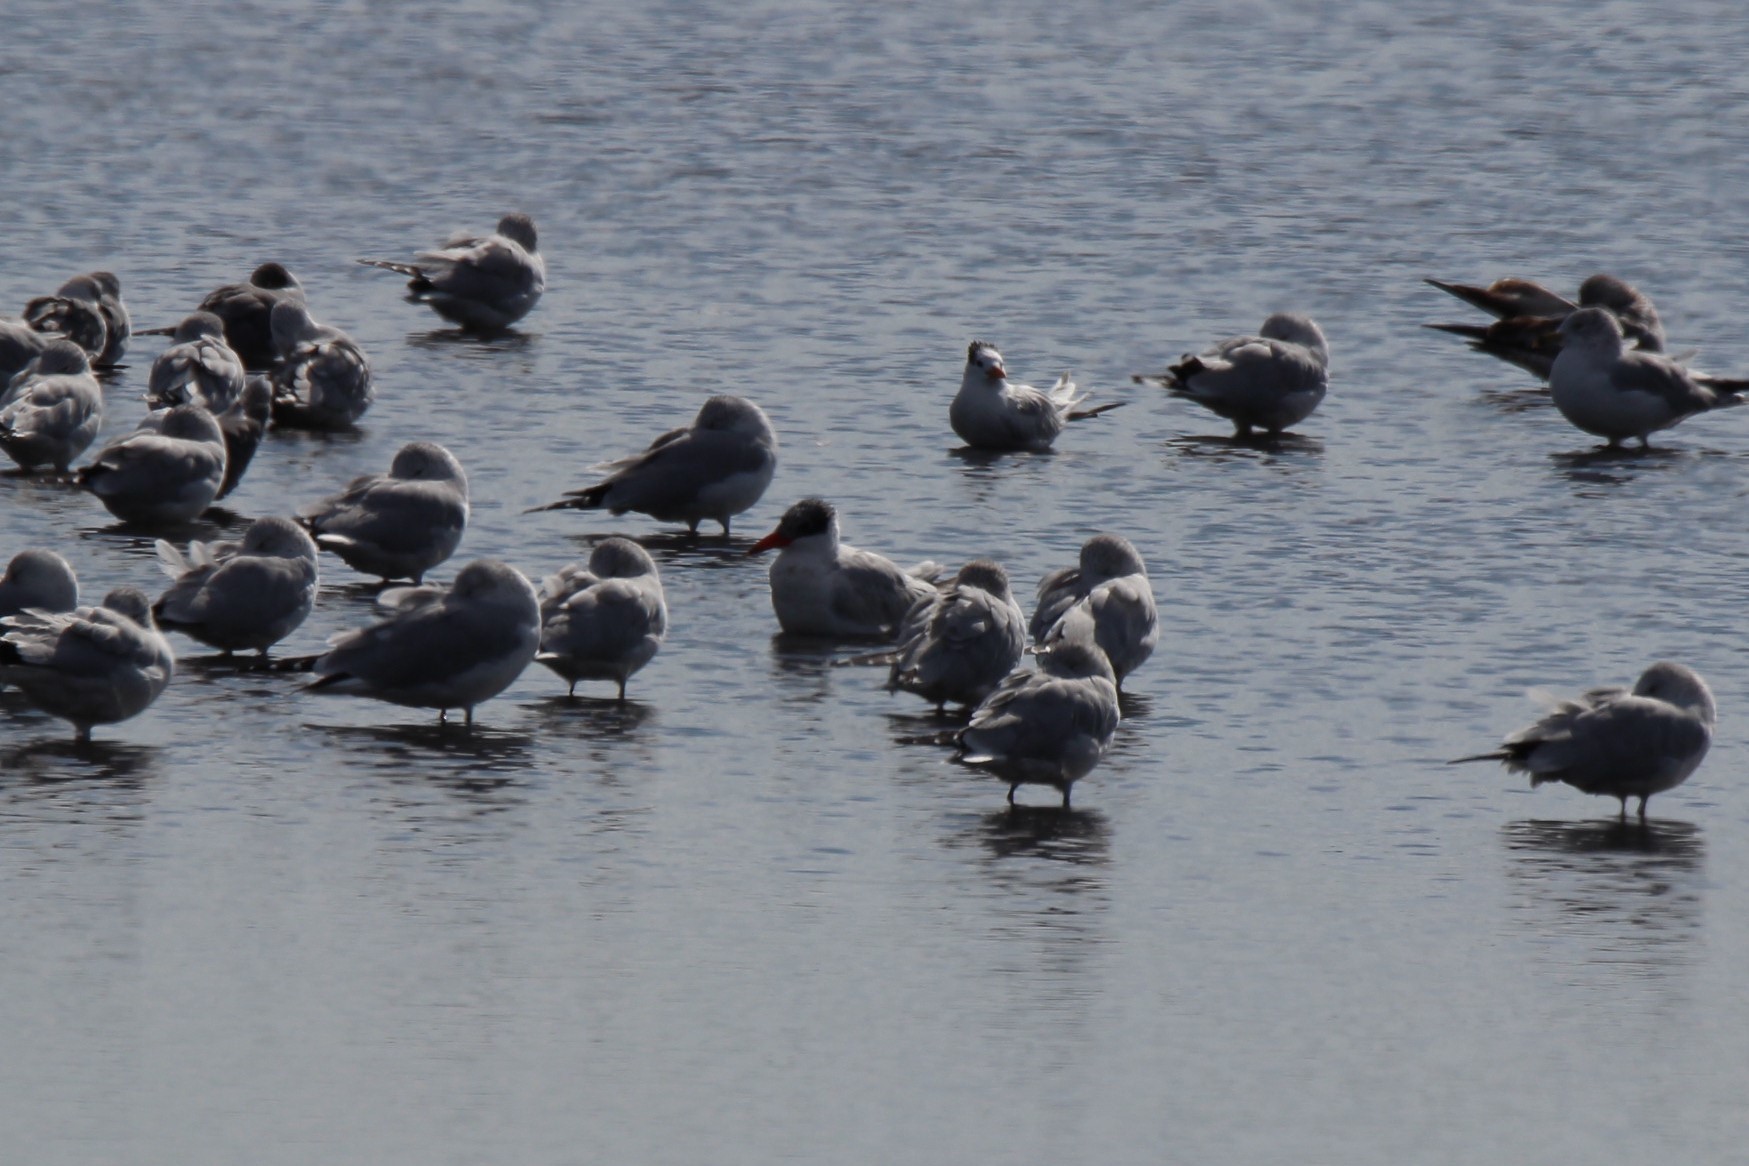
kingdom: Animalia
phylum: Chordata
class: Aves
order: Charadriiformes
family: Laridae
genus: Hydroprogne
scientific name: Hydroprogne caspia
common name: Caspian tern
